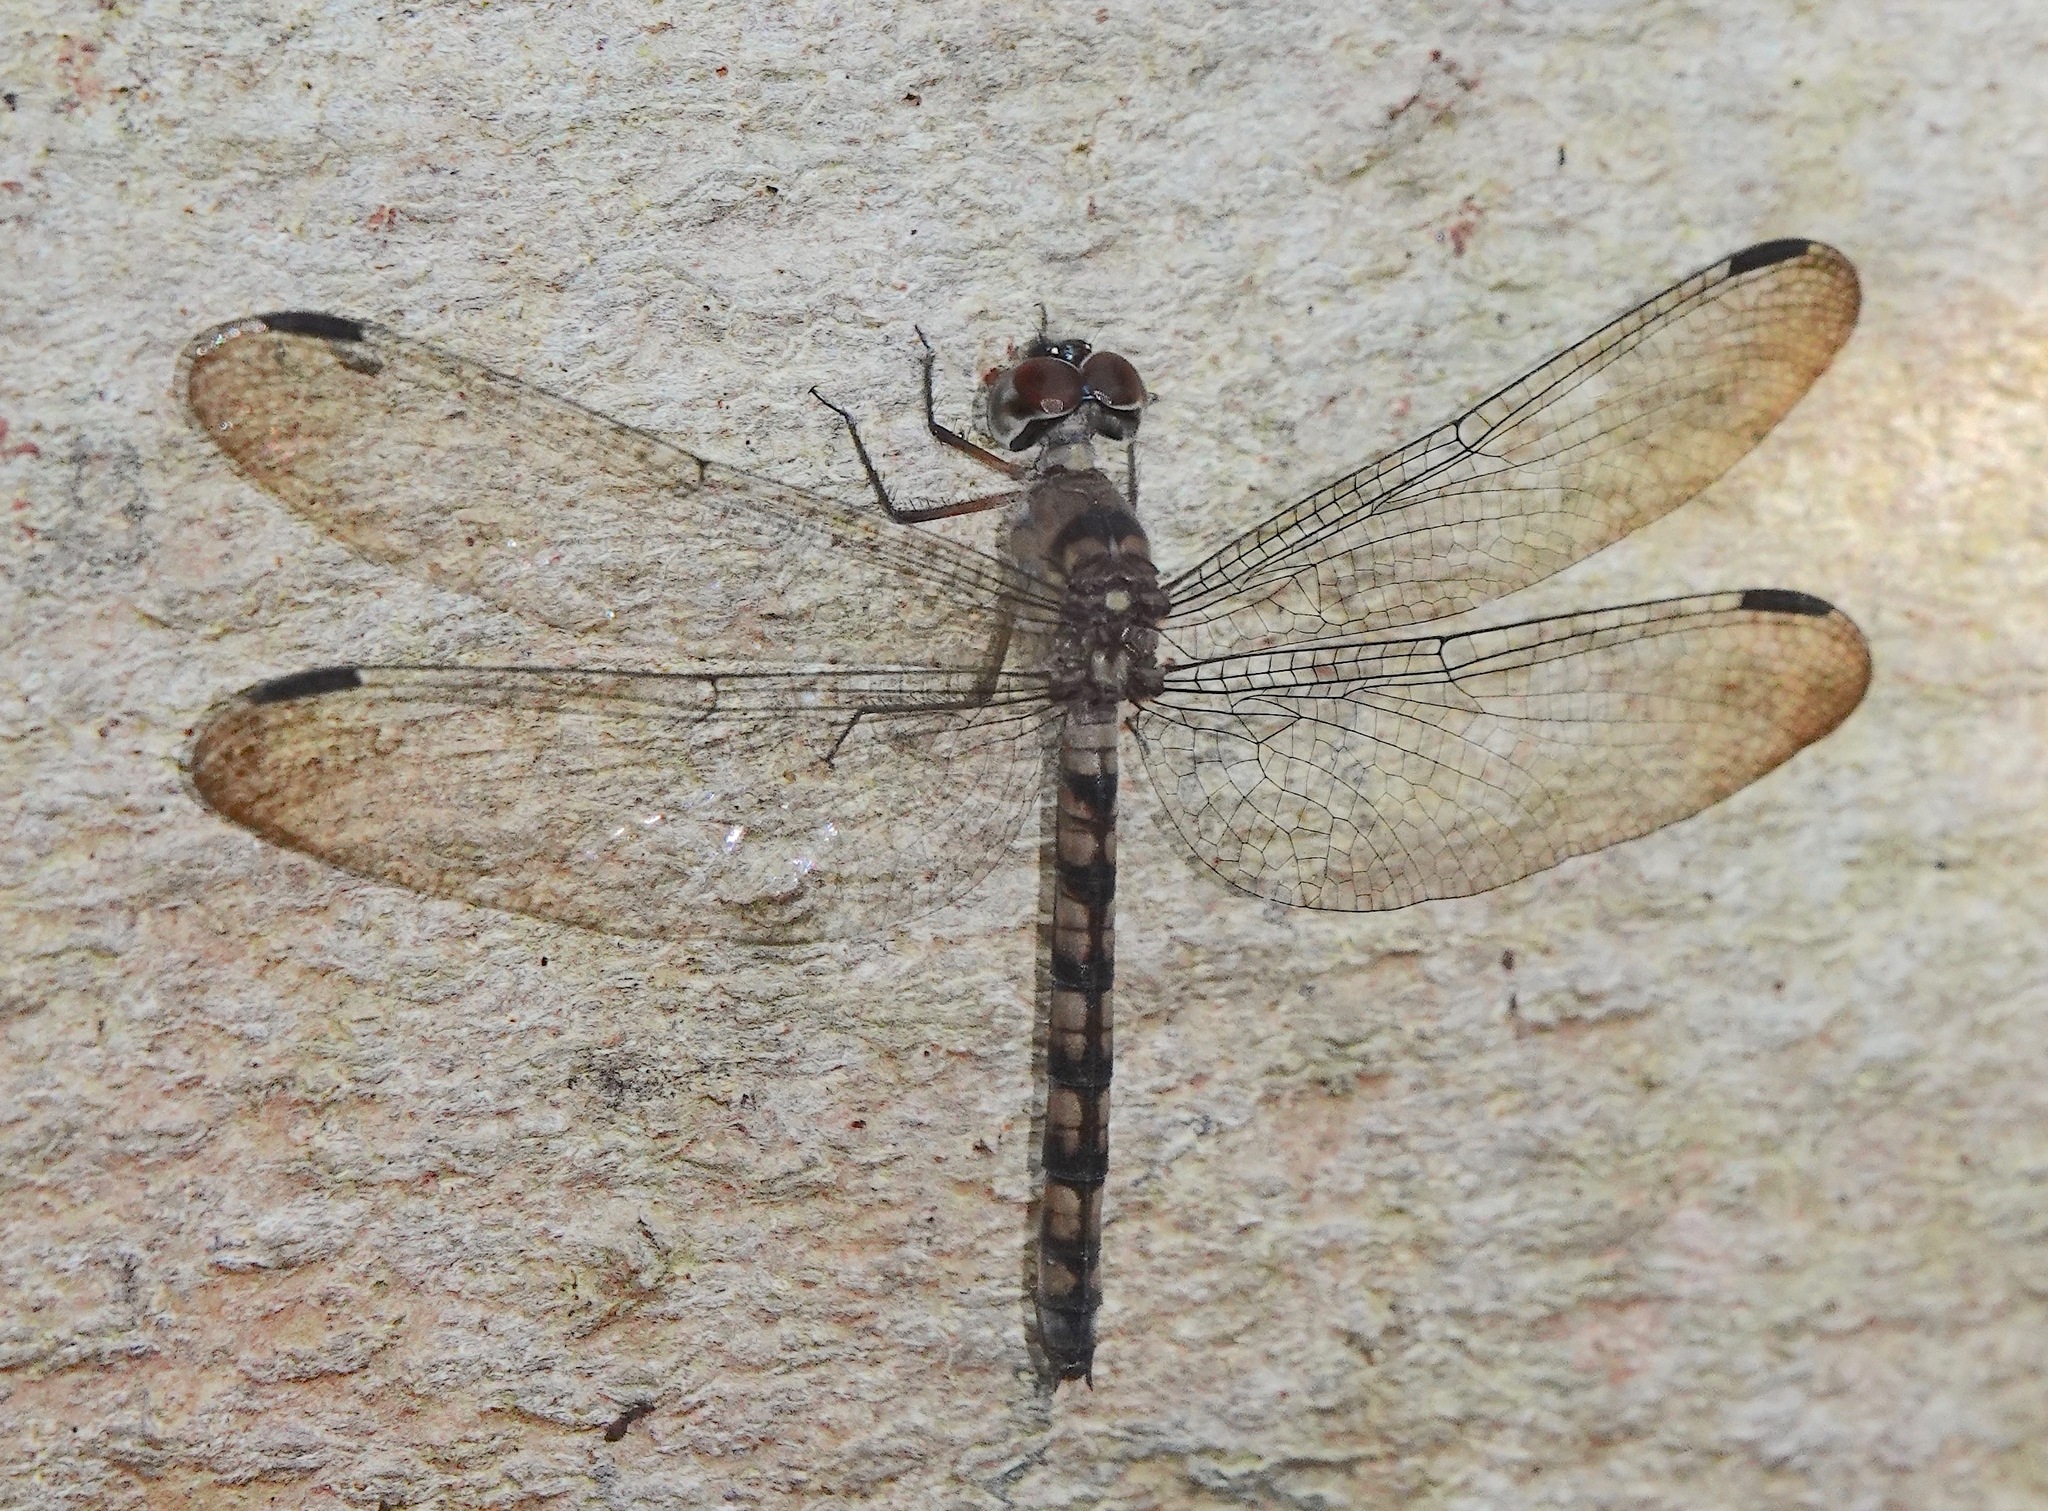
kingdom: Animalia
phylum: Arthropoda
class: Insecta
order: Odonata
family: Libellulidae
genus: Tyriobapta
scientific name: Tyriobapta torrida
